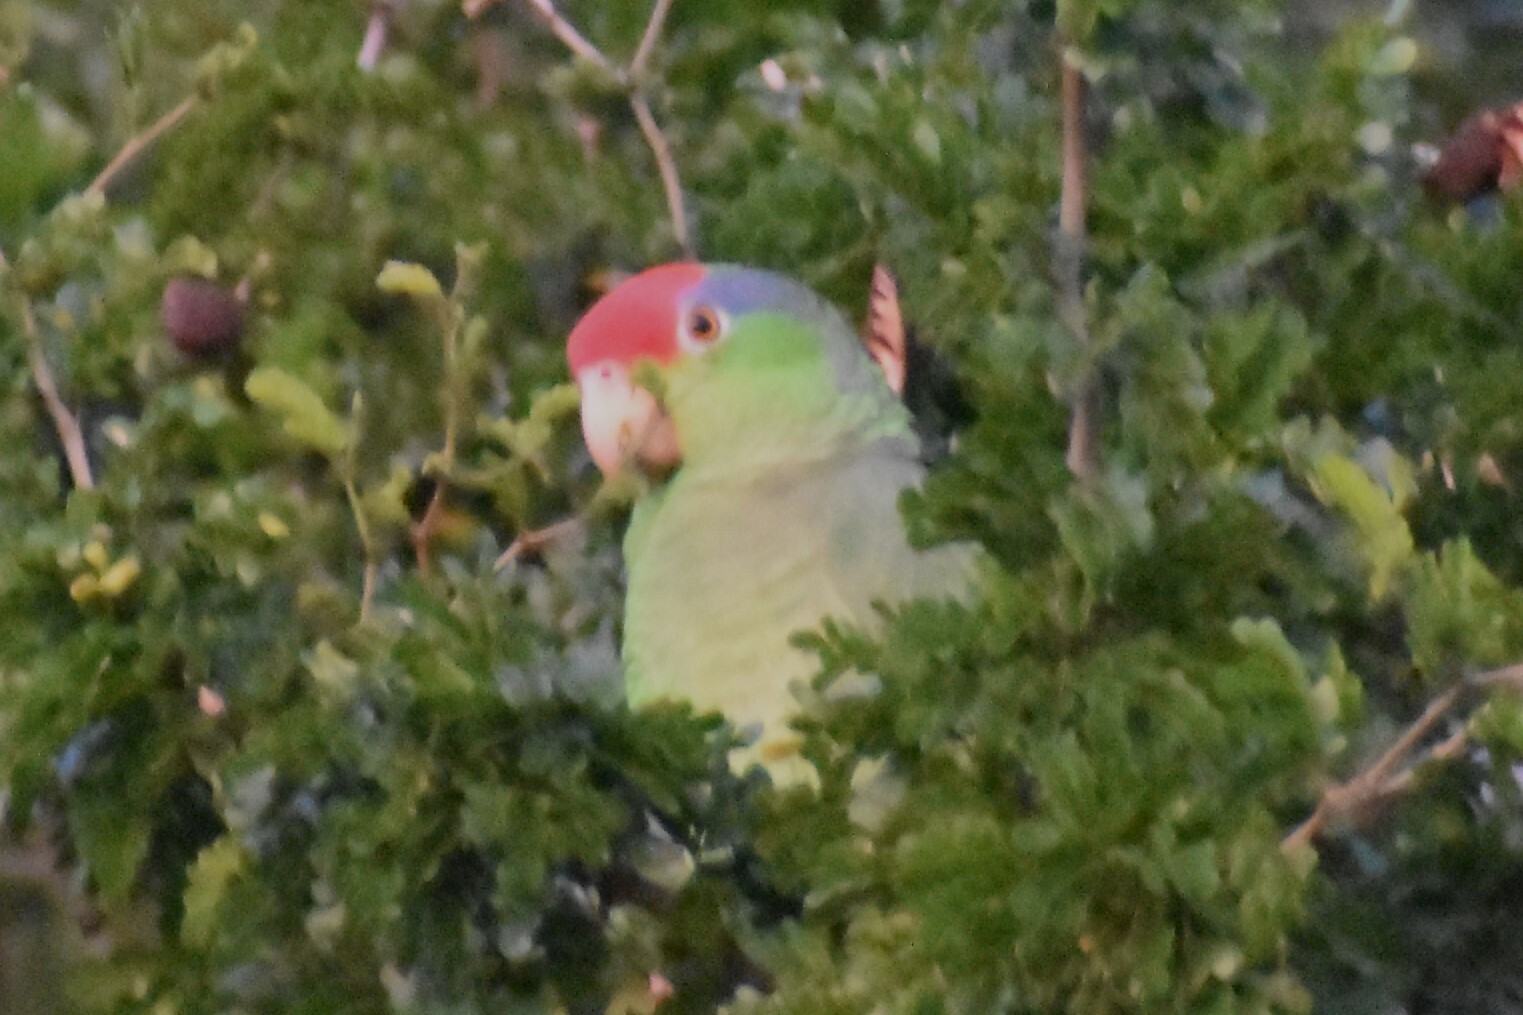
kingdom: Animalia
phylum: Chordata
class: Aves
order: Psittaciformes
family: Psittacidae
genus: Amazona
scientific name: Amazona viridigenalis
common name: Red-crowned amazon
